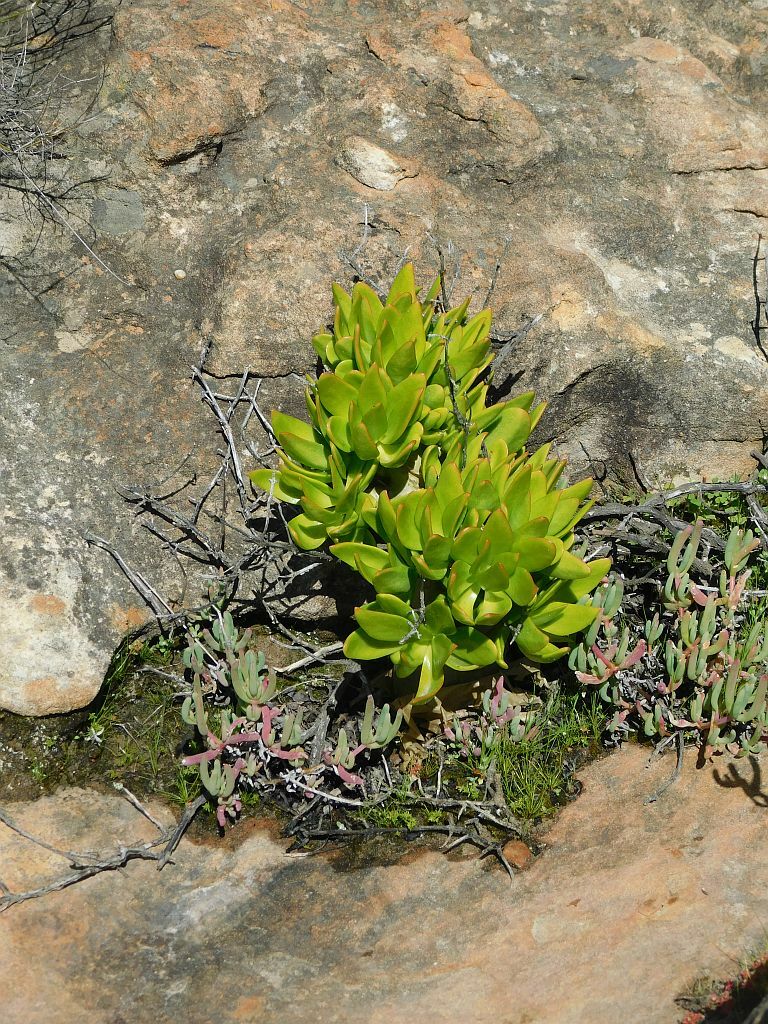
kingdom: Plantae
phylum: Tracheophyta
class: Magnoliopsida
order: Saxifragales
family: Crassulaceae
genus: Tylecodon
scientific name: Tylecodon paniculatus
